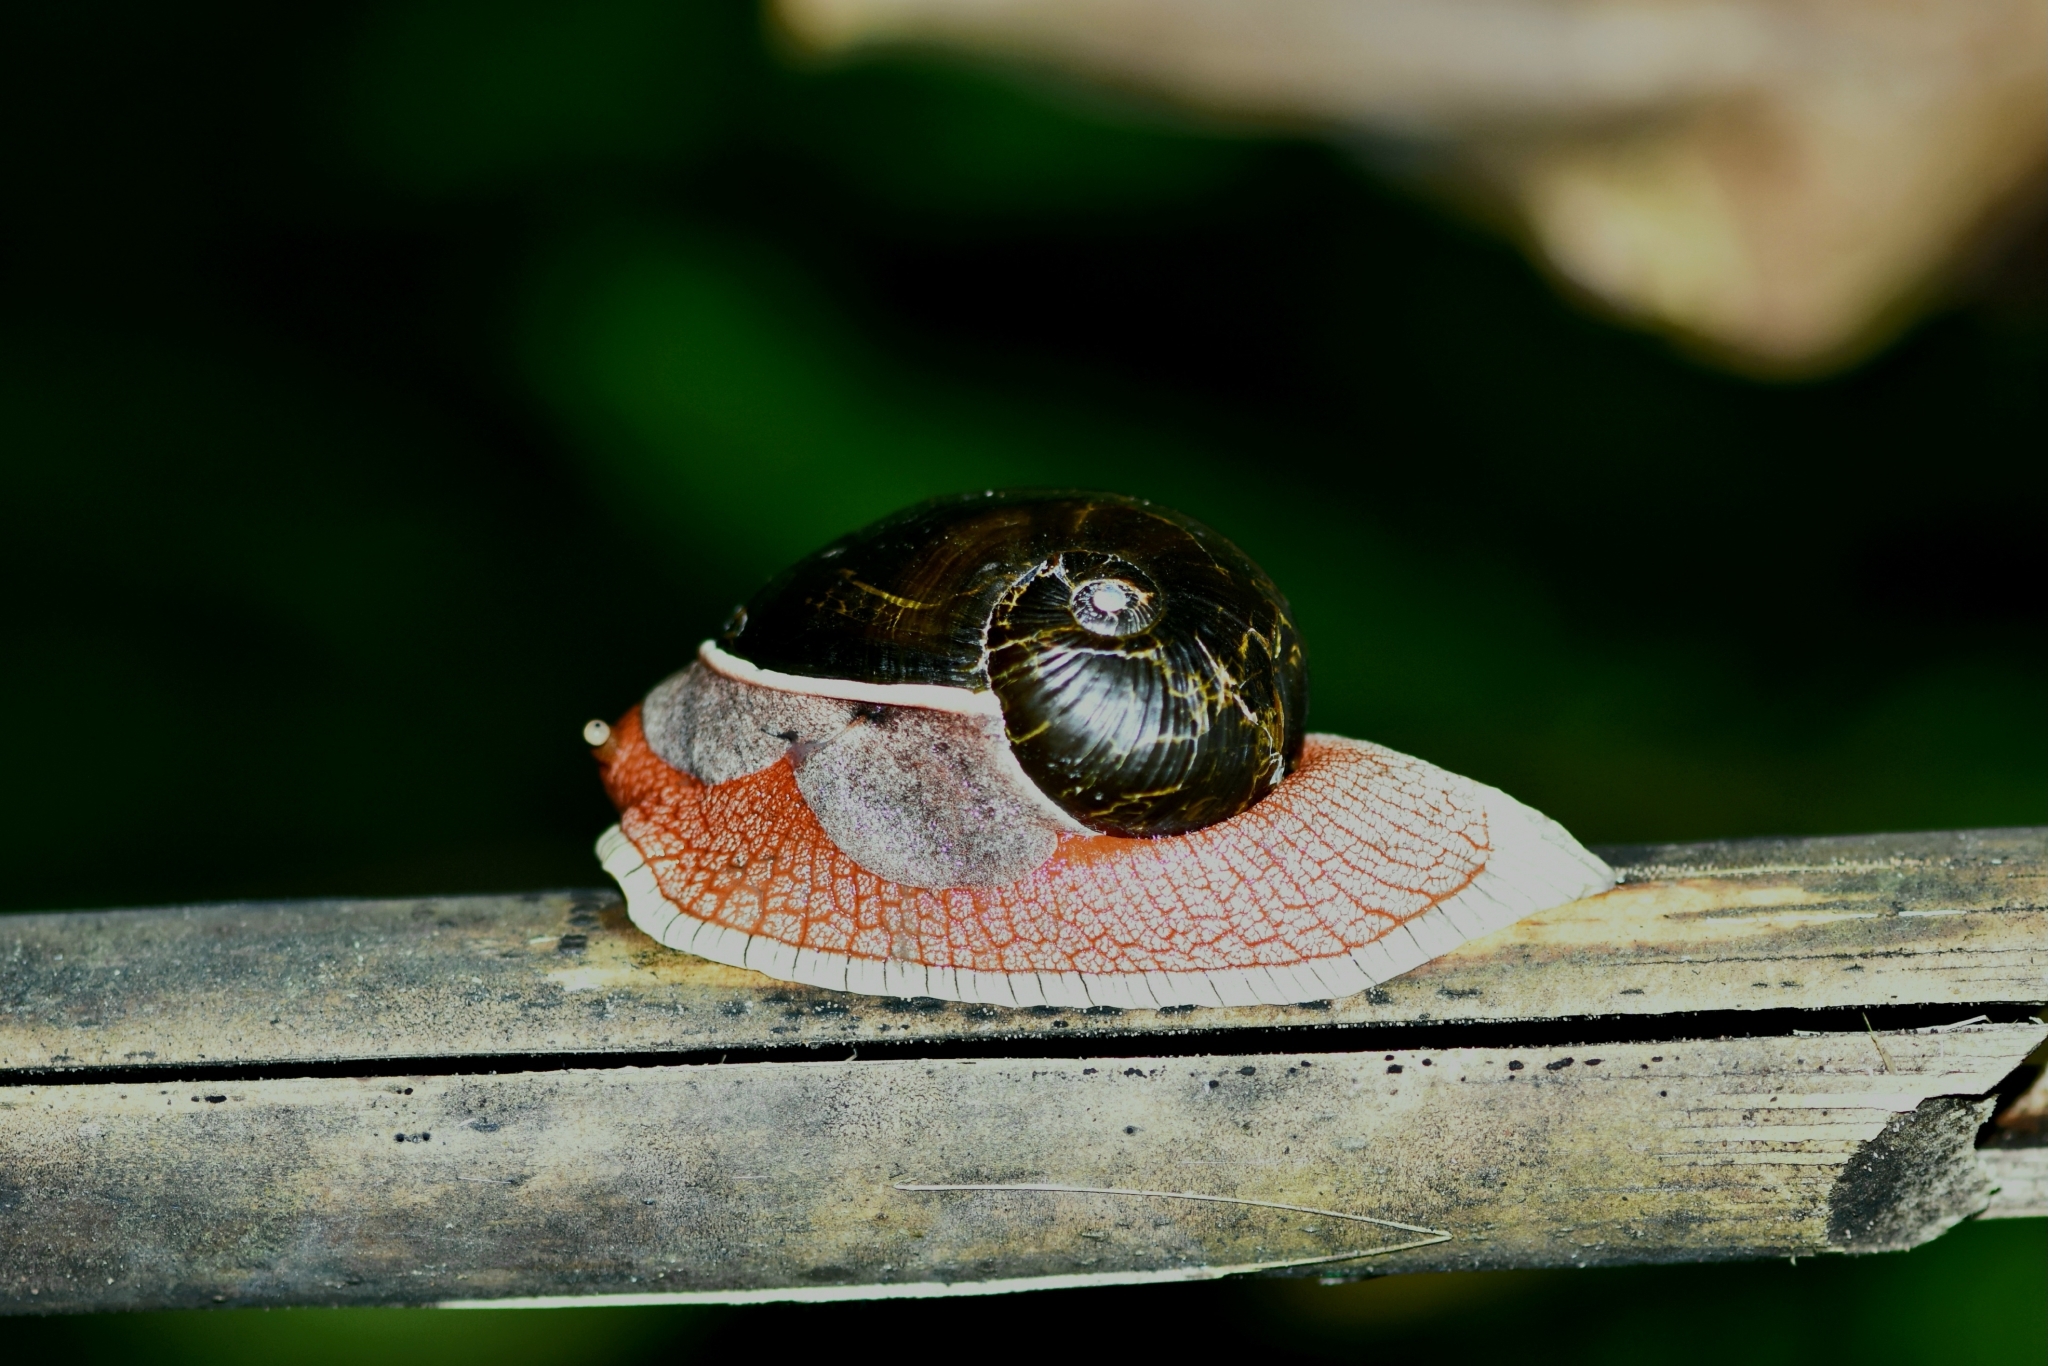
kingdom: Animalia
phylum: Mollusca
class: Gastropoda
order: Stylommatophora
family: Ariophantidae
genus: Indrella
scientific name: Indrella ampulla
